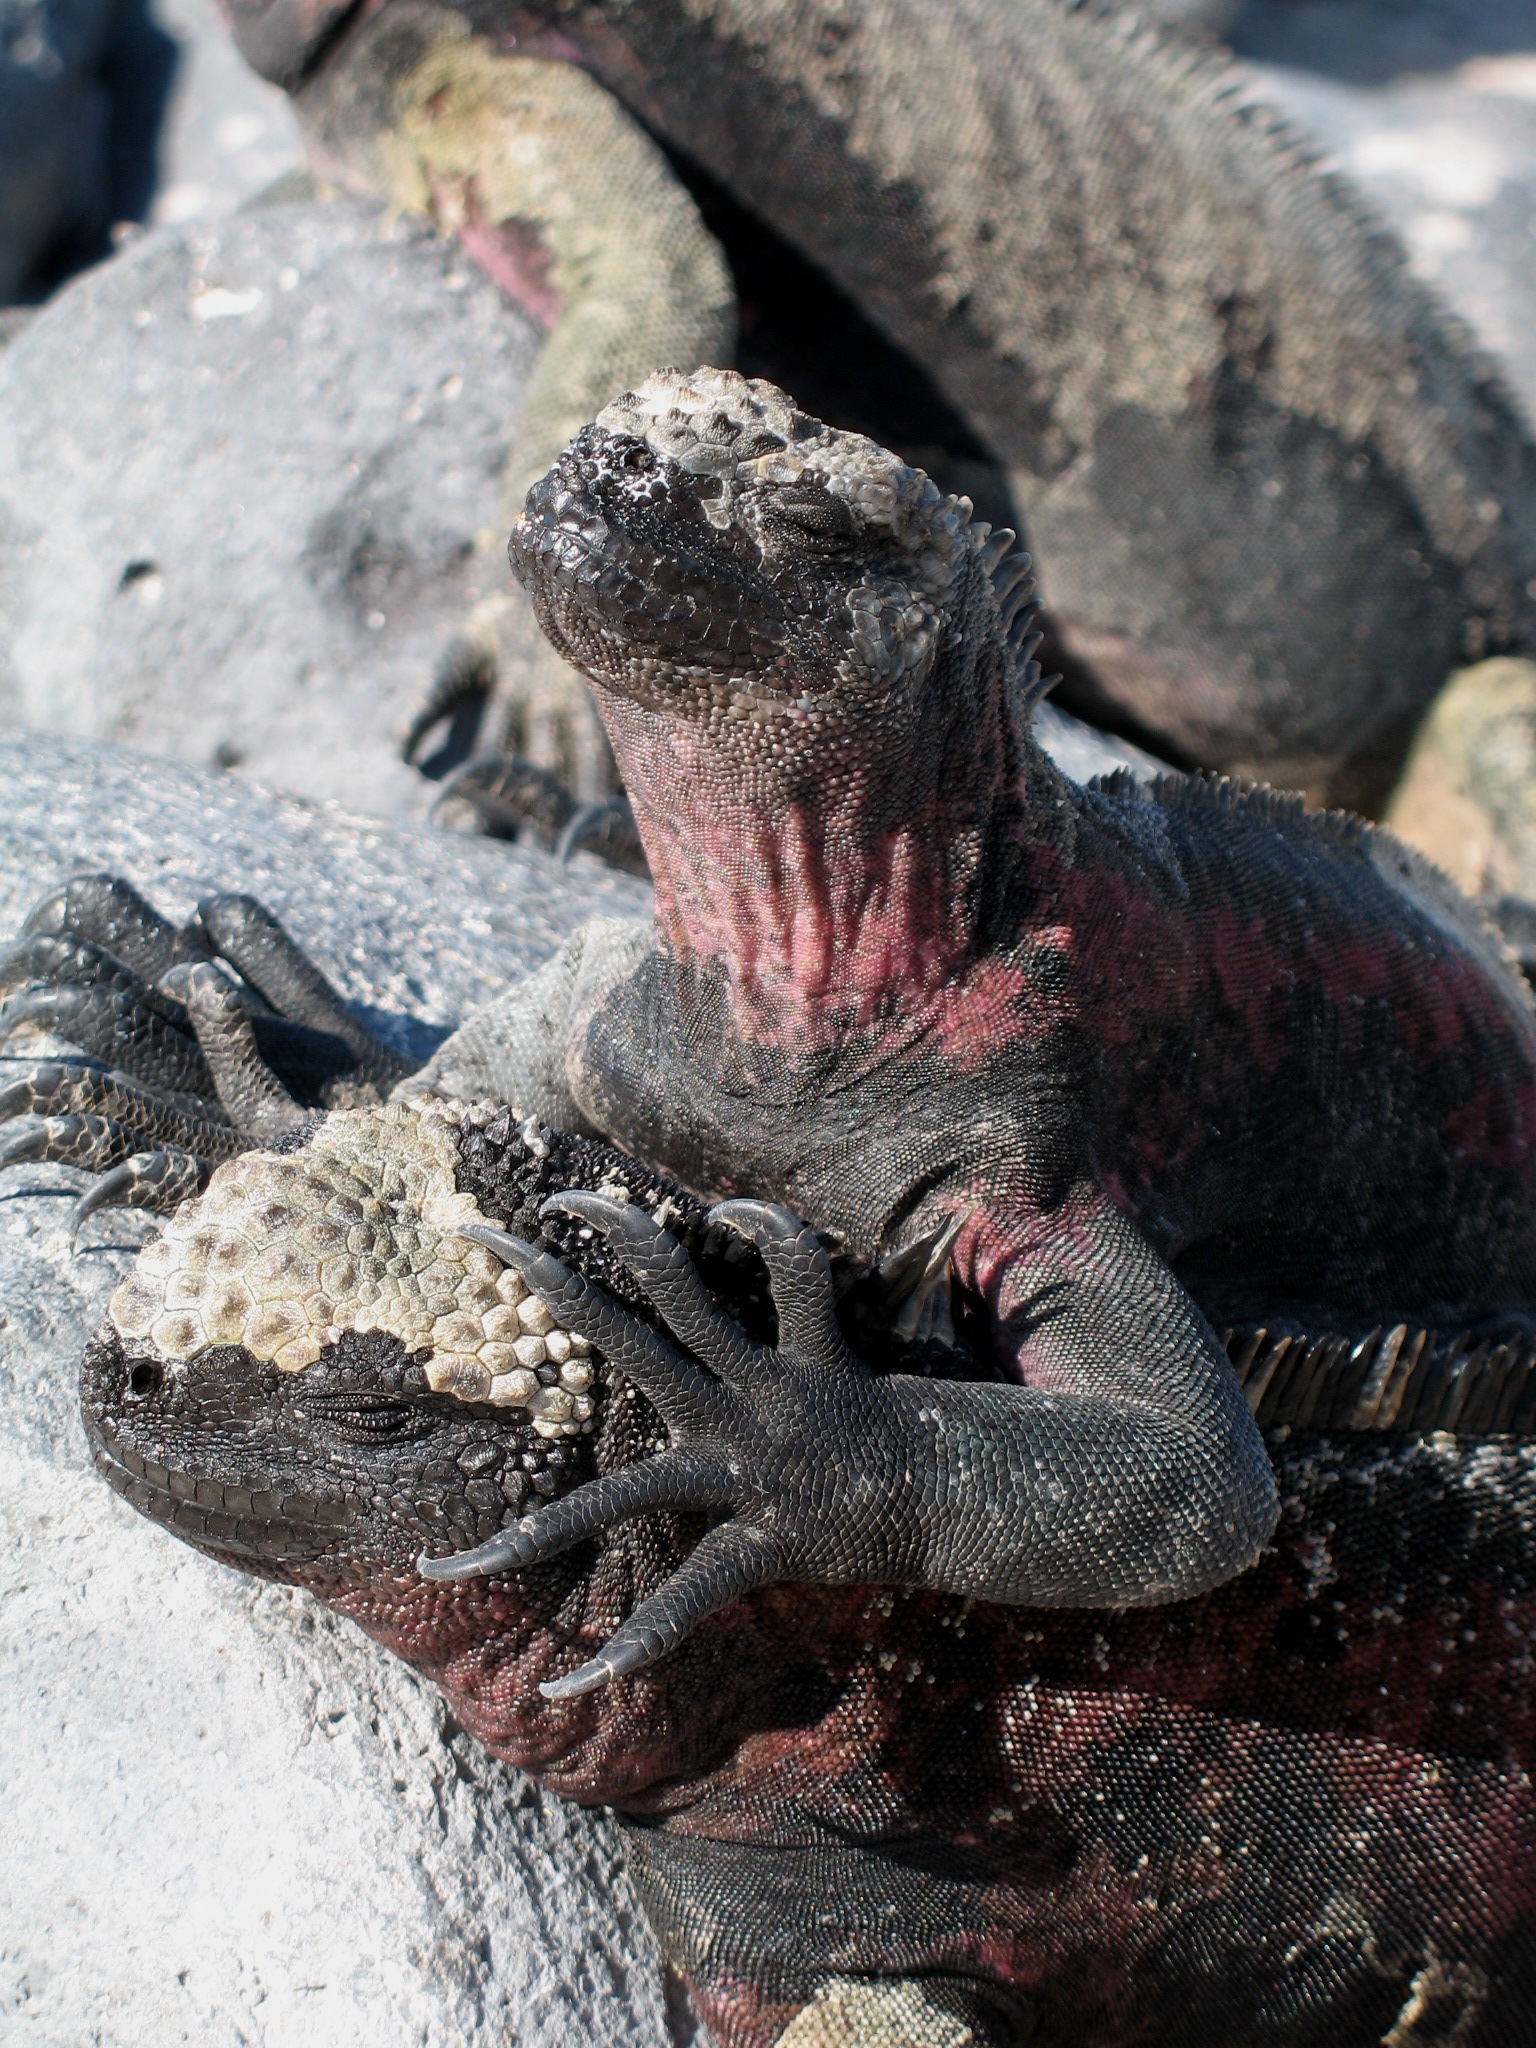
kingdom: Animalia
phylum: Chordata
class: Squamata
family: Iguanidae
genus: Amblyrhynchus
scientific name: Amblyrhynchus cristatus
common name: Marine iguana
